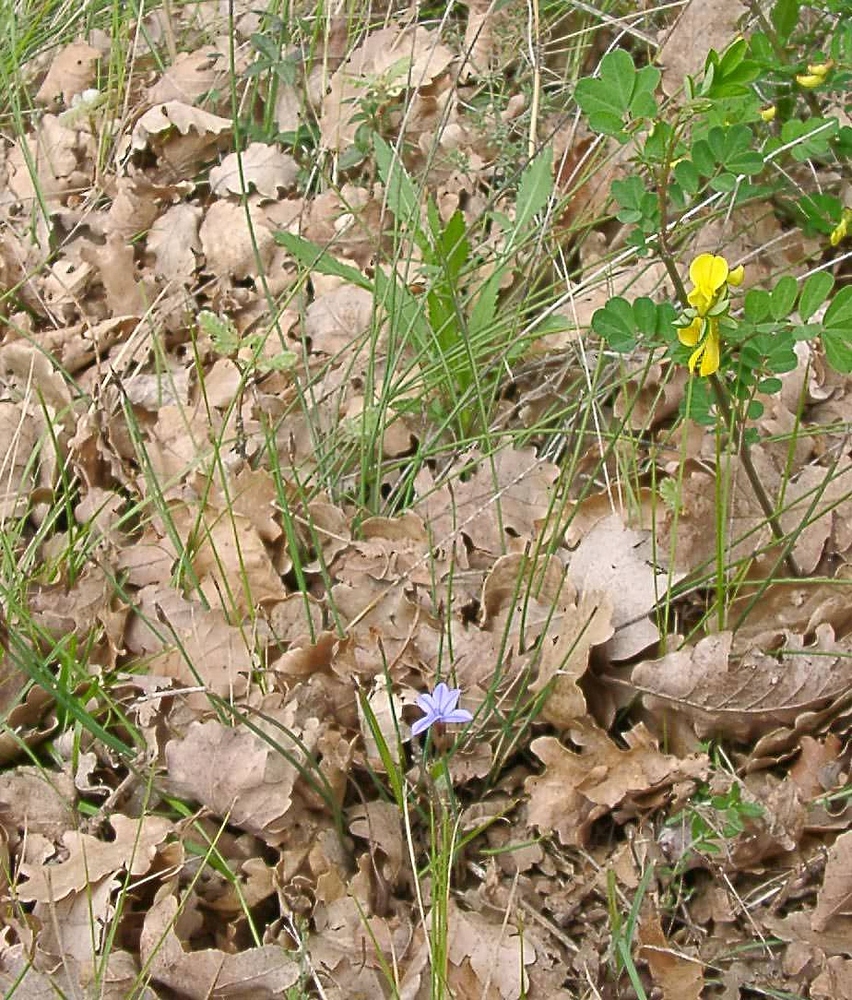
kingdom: Plantae
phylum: Tracheophyta
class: Liliopsida
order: Asparagales
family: Asparagaceae
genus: Aphyllanthes
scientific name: Aphyllanthes monspeliensis
